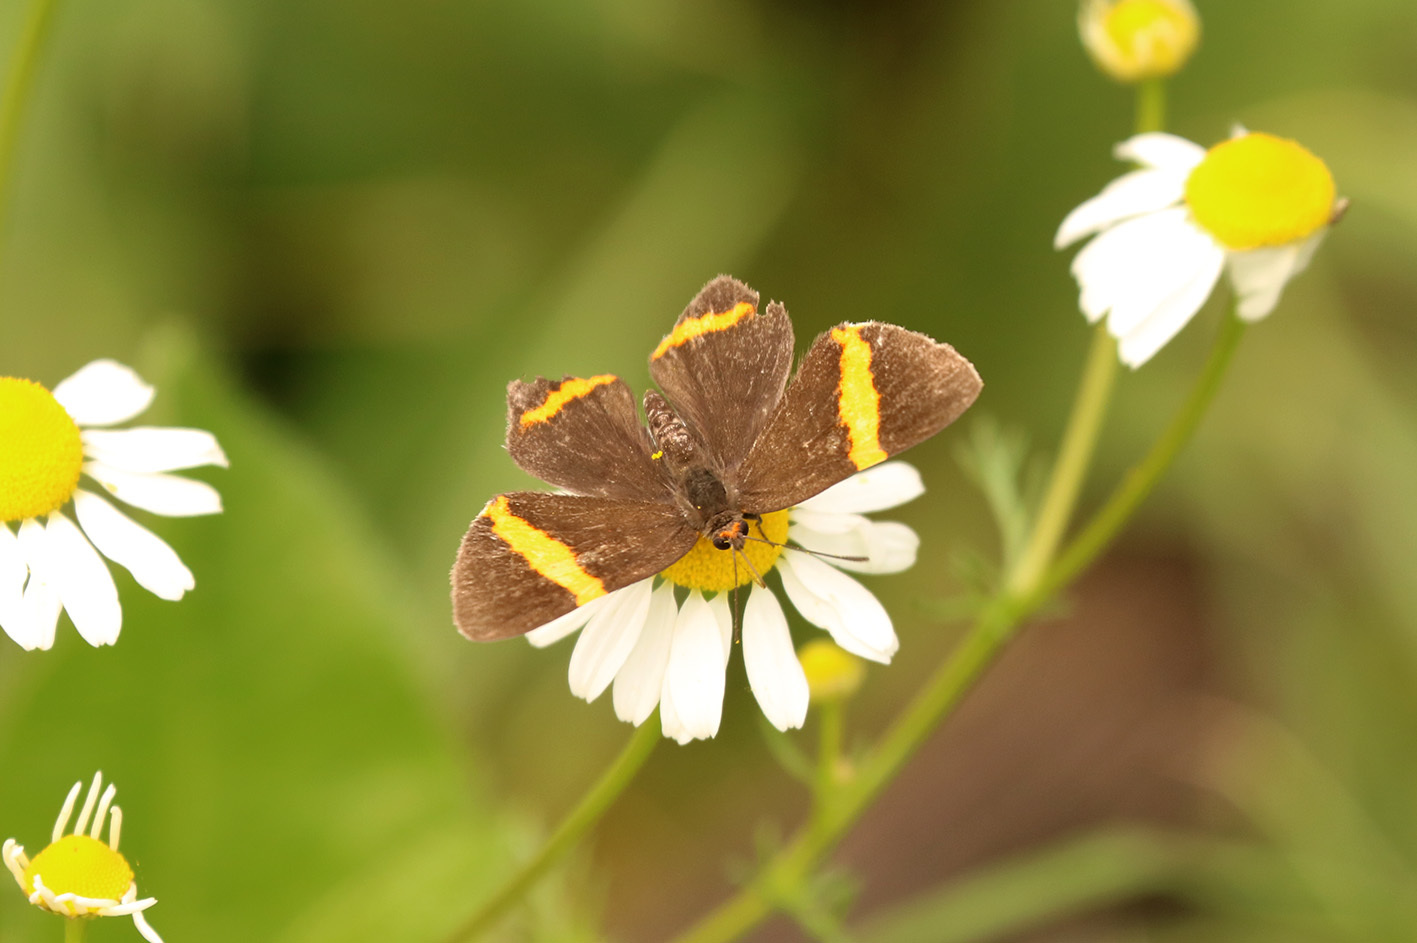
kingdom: Animalia
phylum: Arthropoda
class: Insecta
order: Lepidoptera
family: Riodinidae
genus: Riodina
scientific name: Riodina lysippoides
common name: Little dancer metalmark
